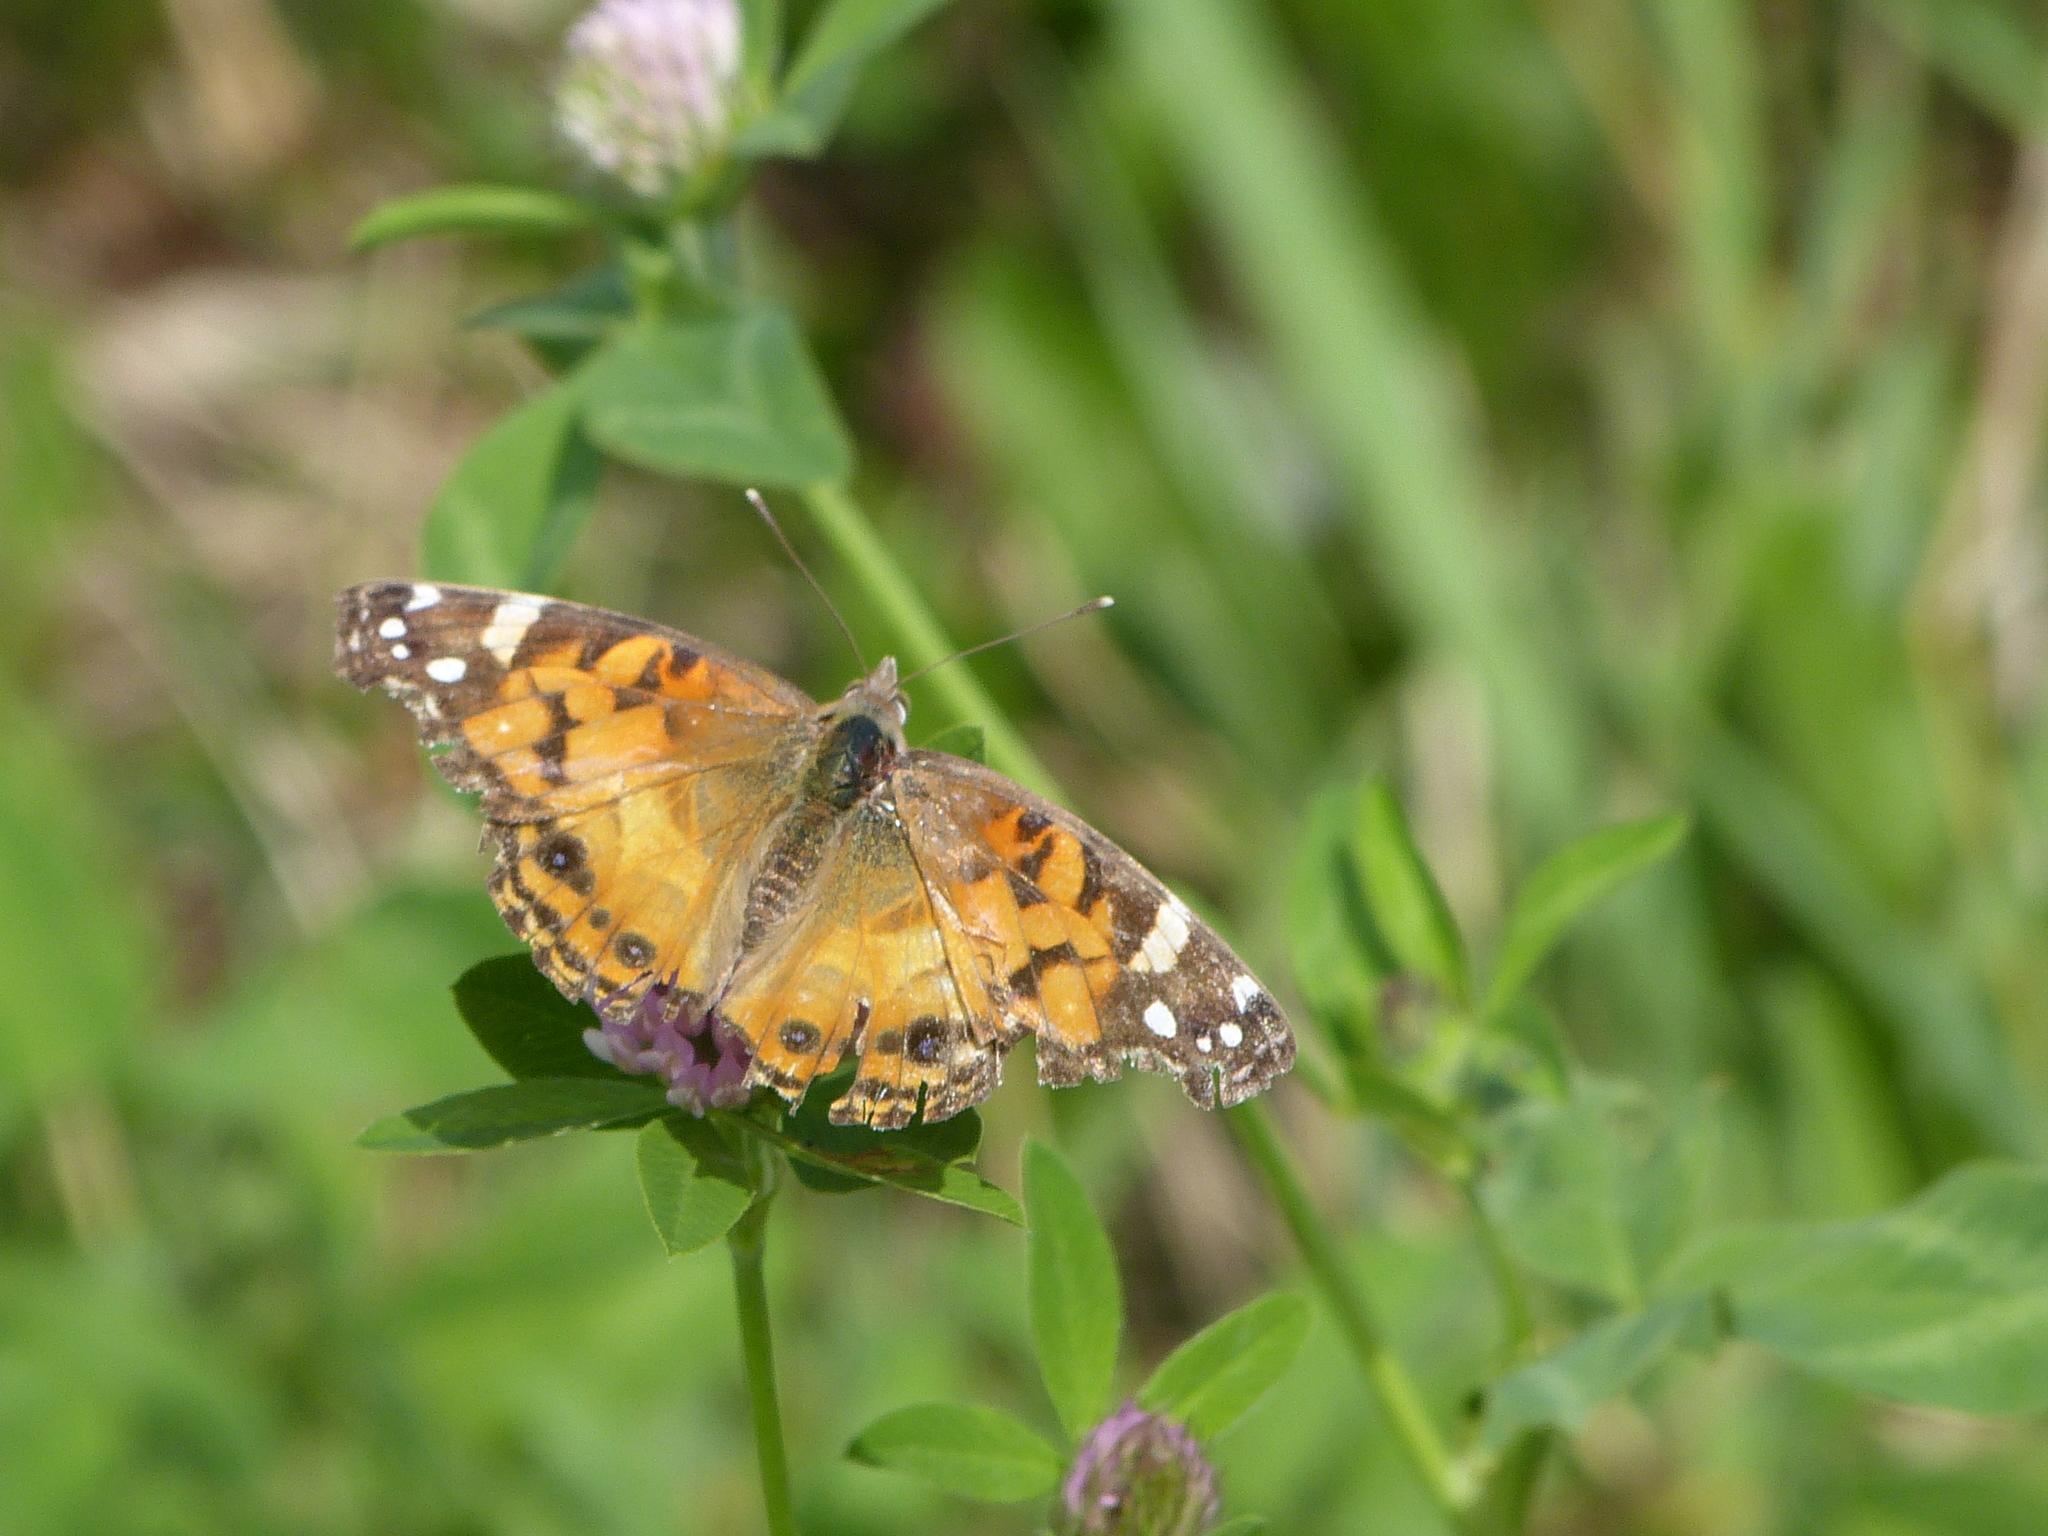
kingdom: Animalia
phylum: Arthropoda
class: Insecta
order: Lepidoptera
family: Nymphalidae
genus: Vanessa
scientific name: Vanessa virginiensis
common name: American lady
